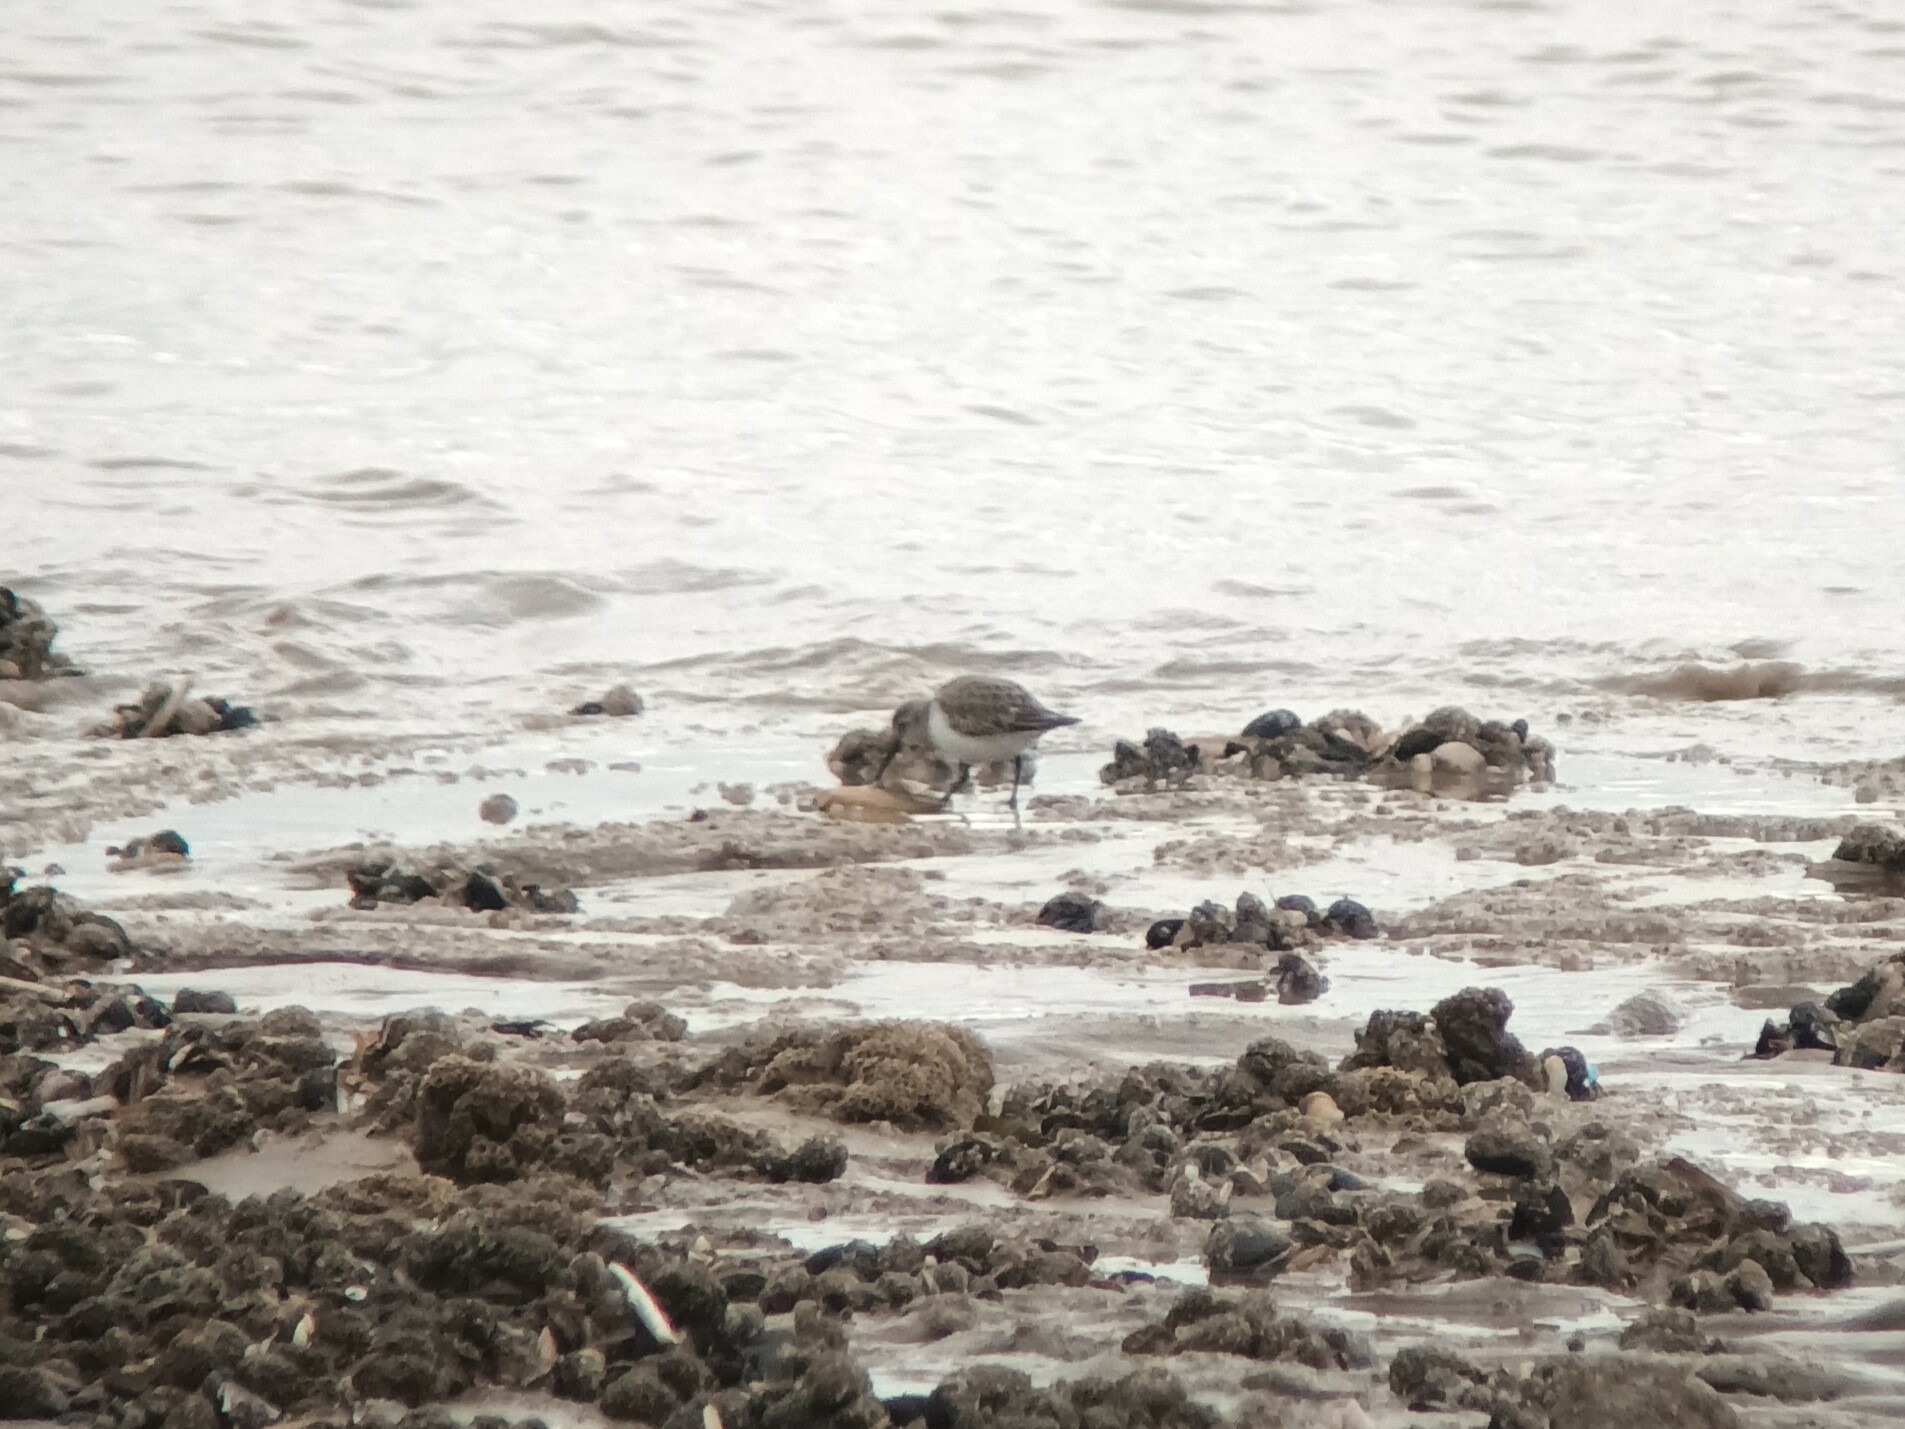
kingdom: Animalia
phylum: Chordata
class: Aves
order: Charadriiformes
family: Scolopacidae
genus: Calidris
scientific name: Calidris alpina
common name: Dunlin
